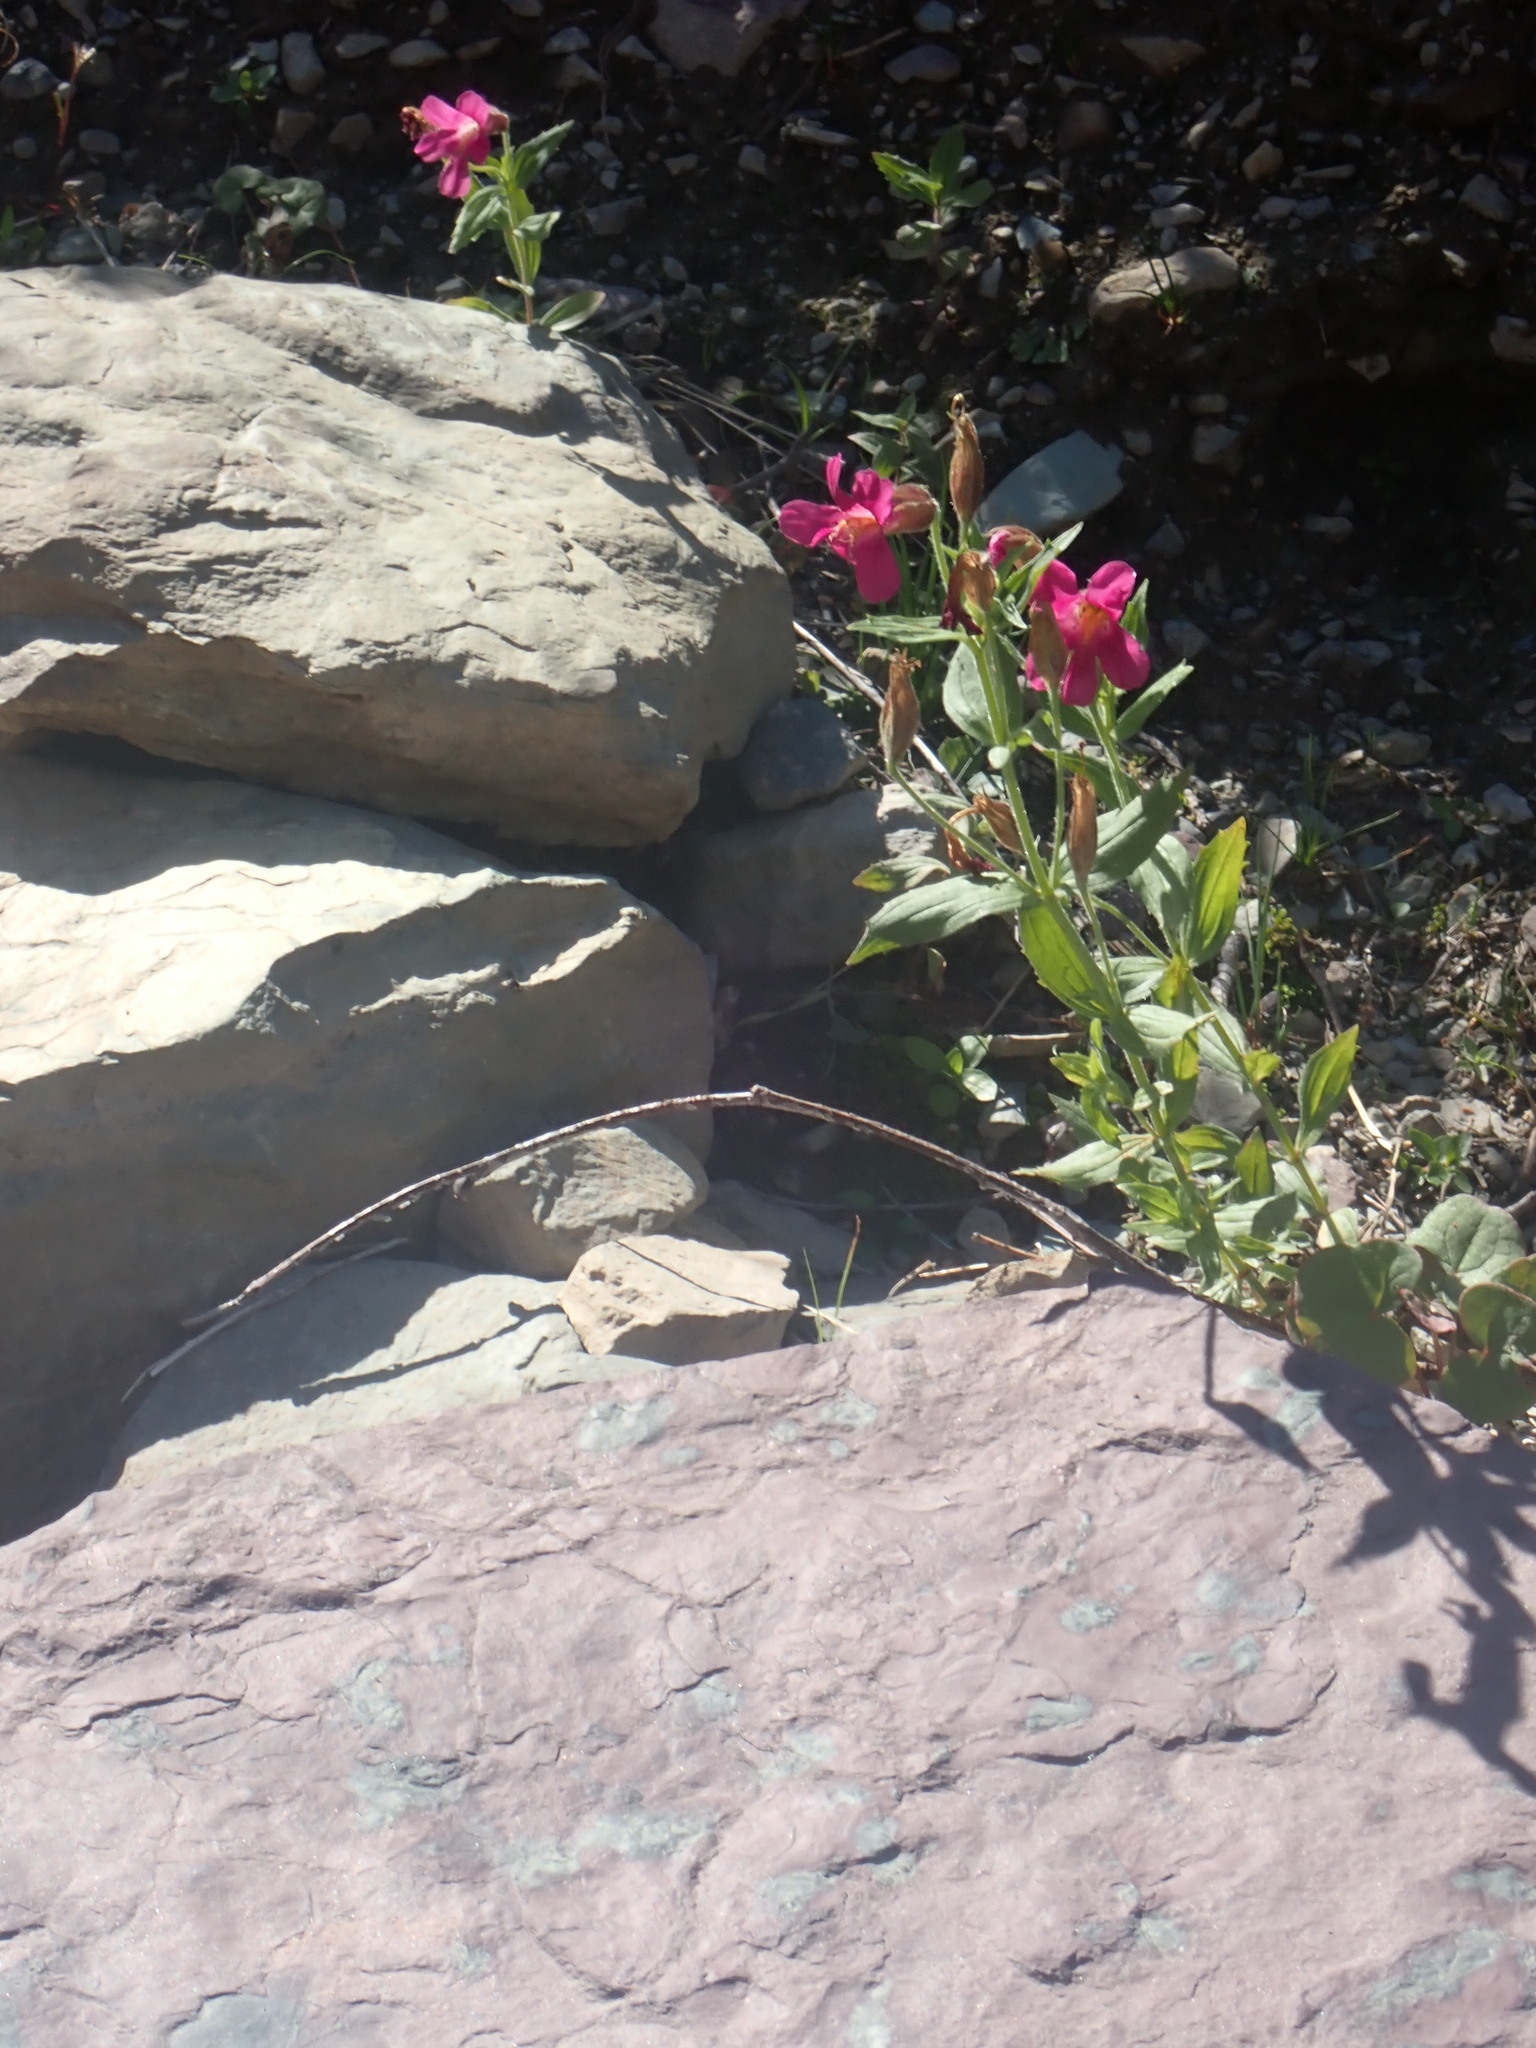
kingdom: Plantae
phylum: Tracheophyta
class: Magnoliopsida
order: Lamiales
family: Phrymaceae
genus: Erythranthe
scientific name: Erythranthe lewisii
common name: Lewis's monkey-flower
